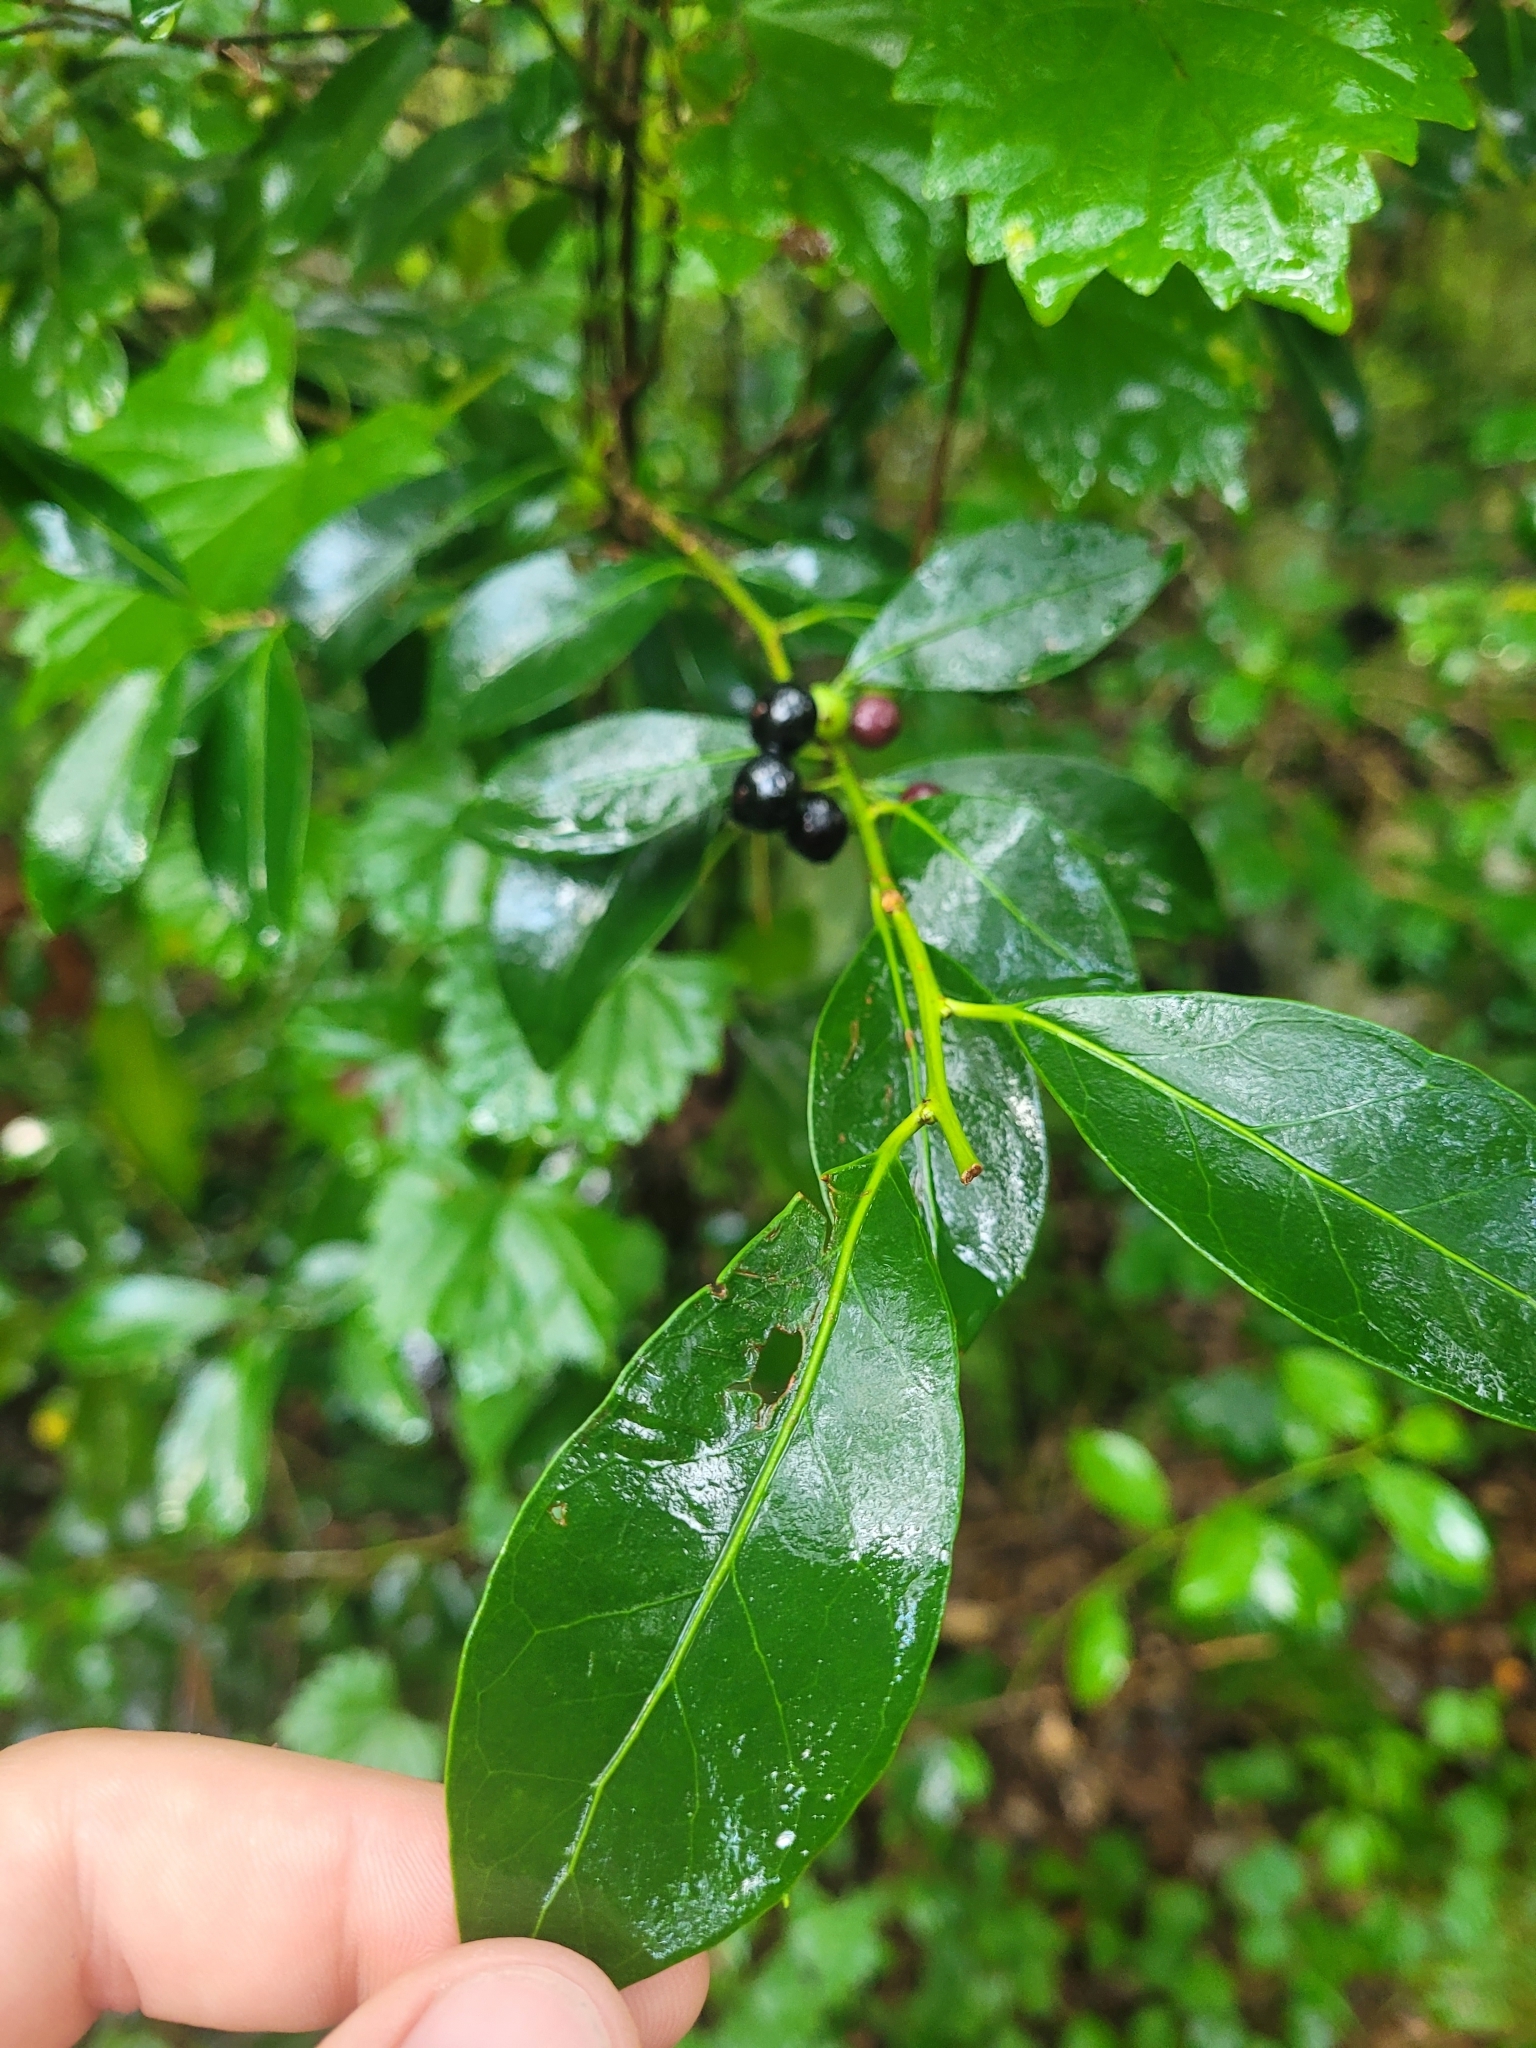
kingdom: Plantae
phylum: Tracheophyta
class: Magnoliopsida
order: Aquifoliales
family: Aquifoliaceae
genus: Ilex
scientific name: Ilex coriacea
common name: Sweet gallberry
